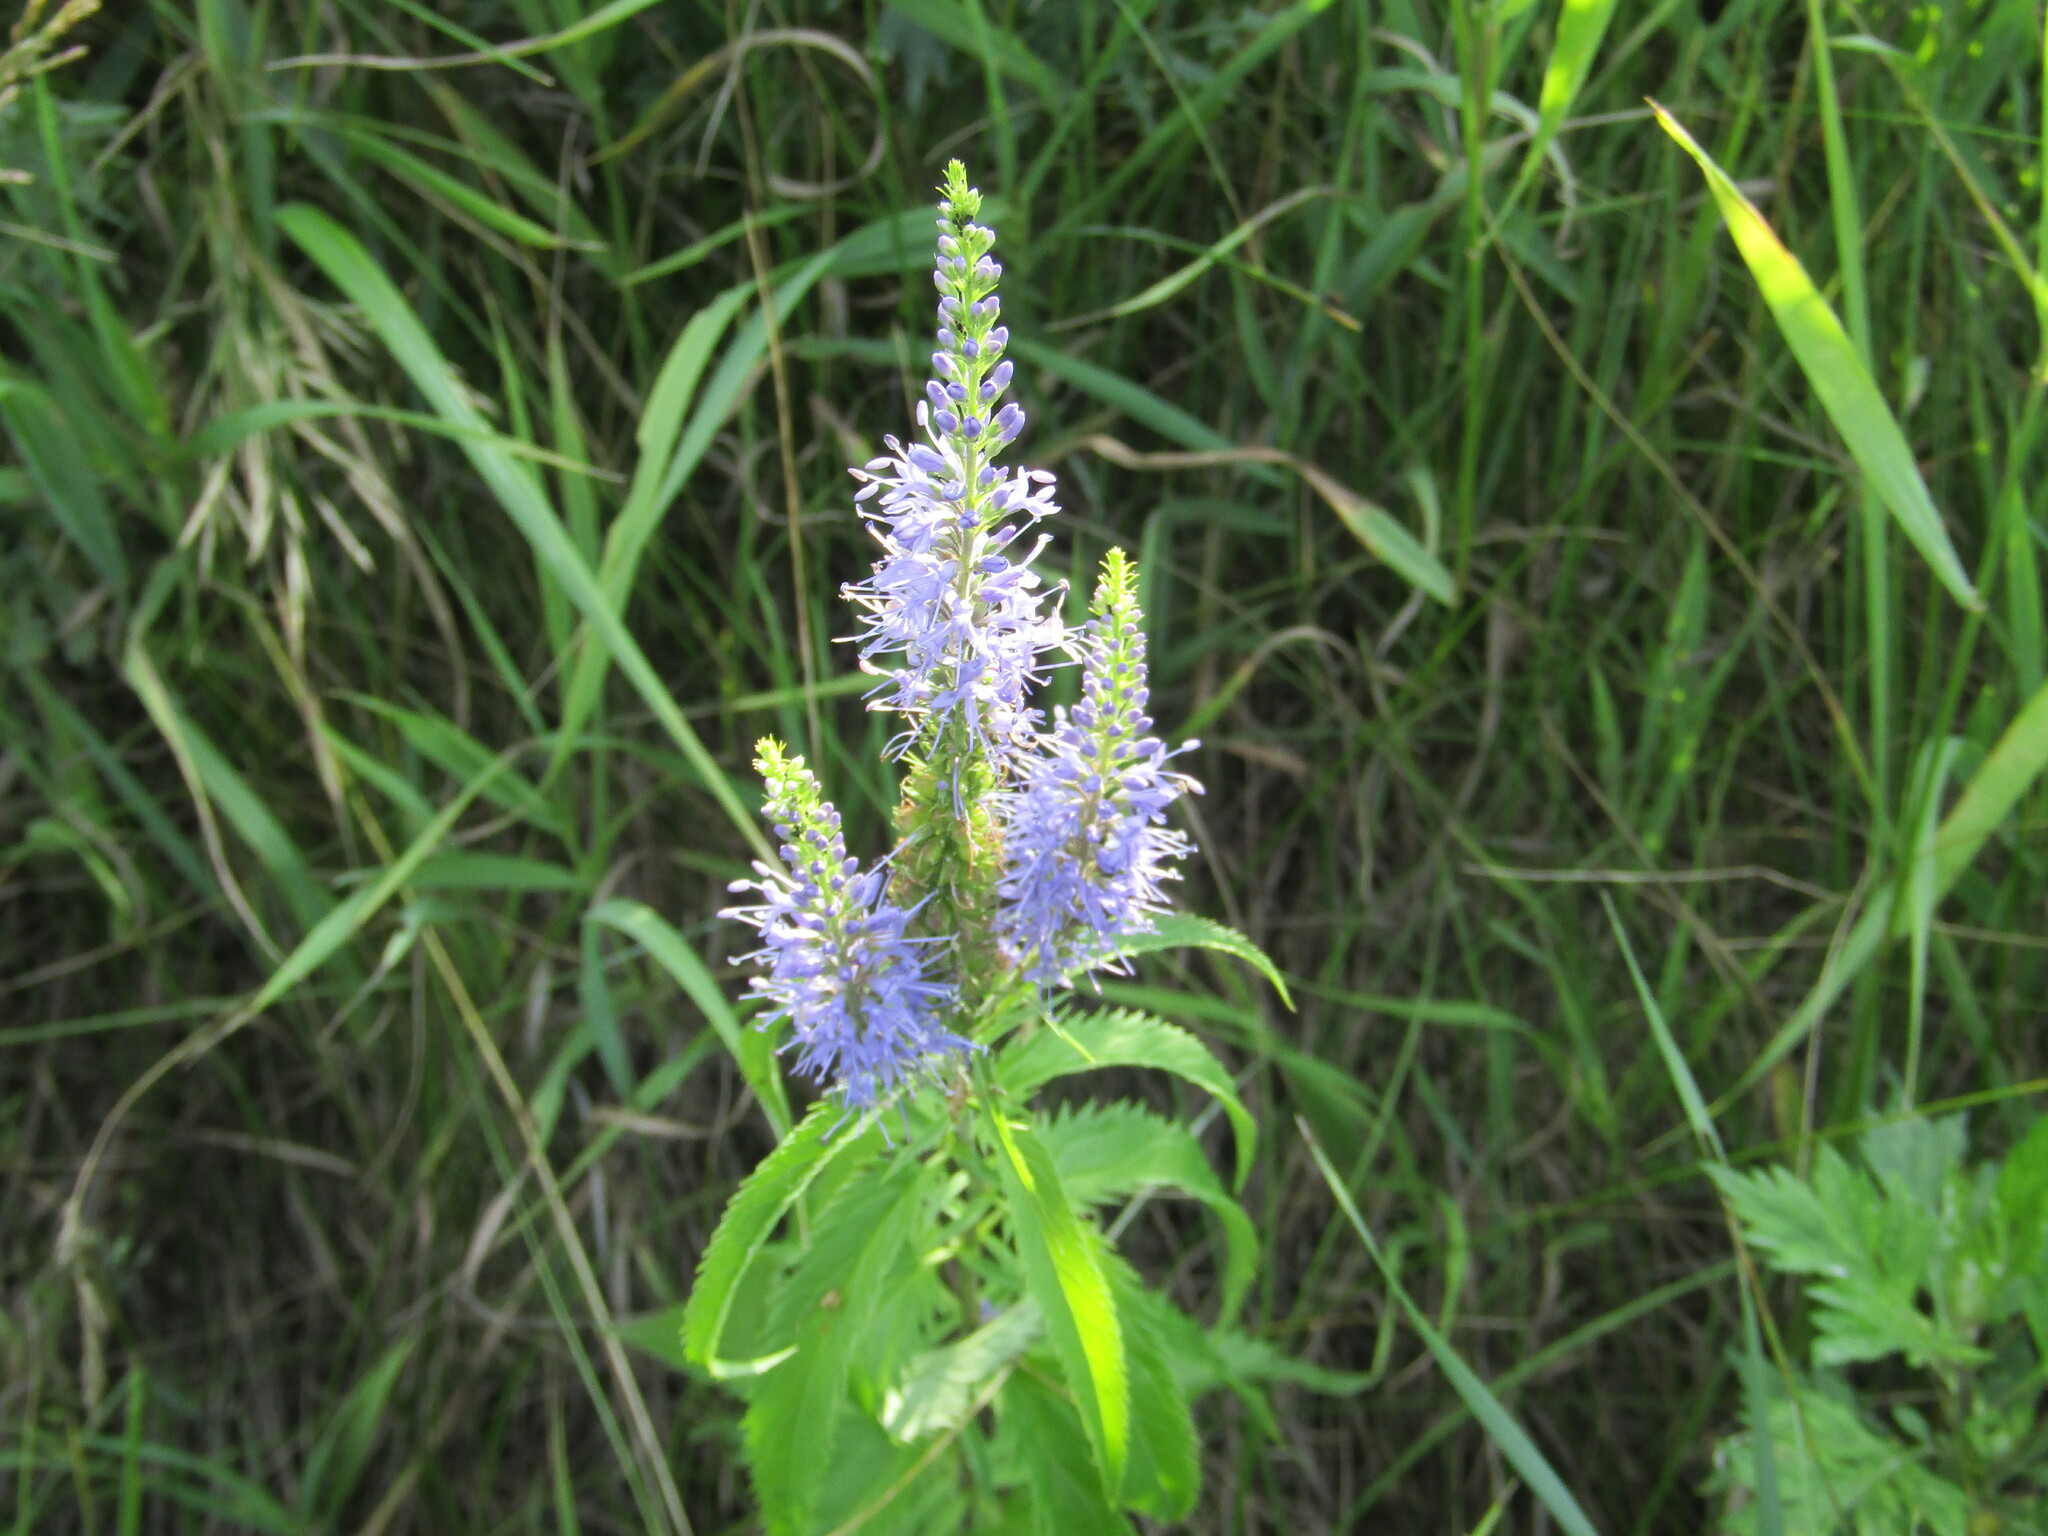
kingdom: Plantae
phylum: Tracheophyta
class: Magnoliopsida
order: Lamiales
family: Plantaginaceae
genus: Veronica
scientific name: Veronica longifolia
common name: Garden speedwell
